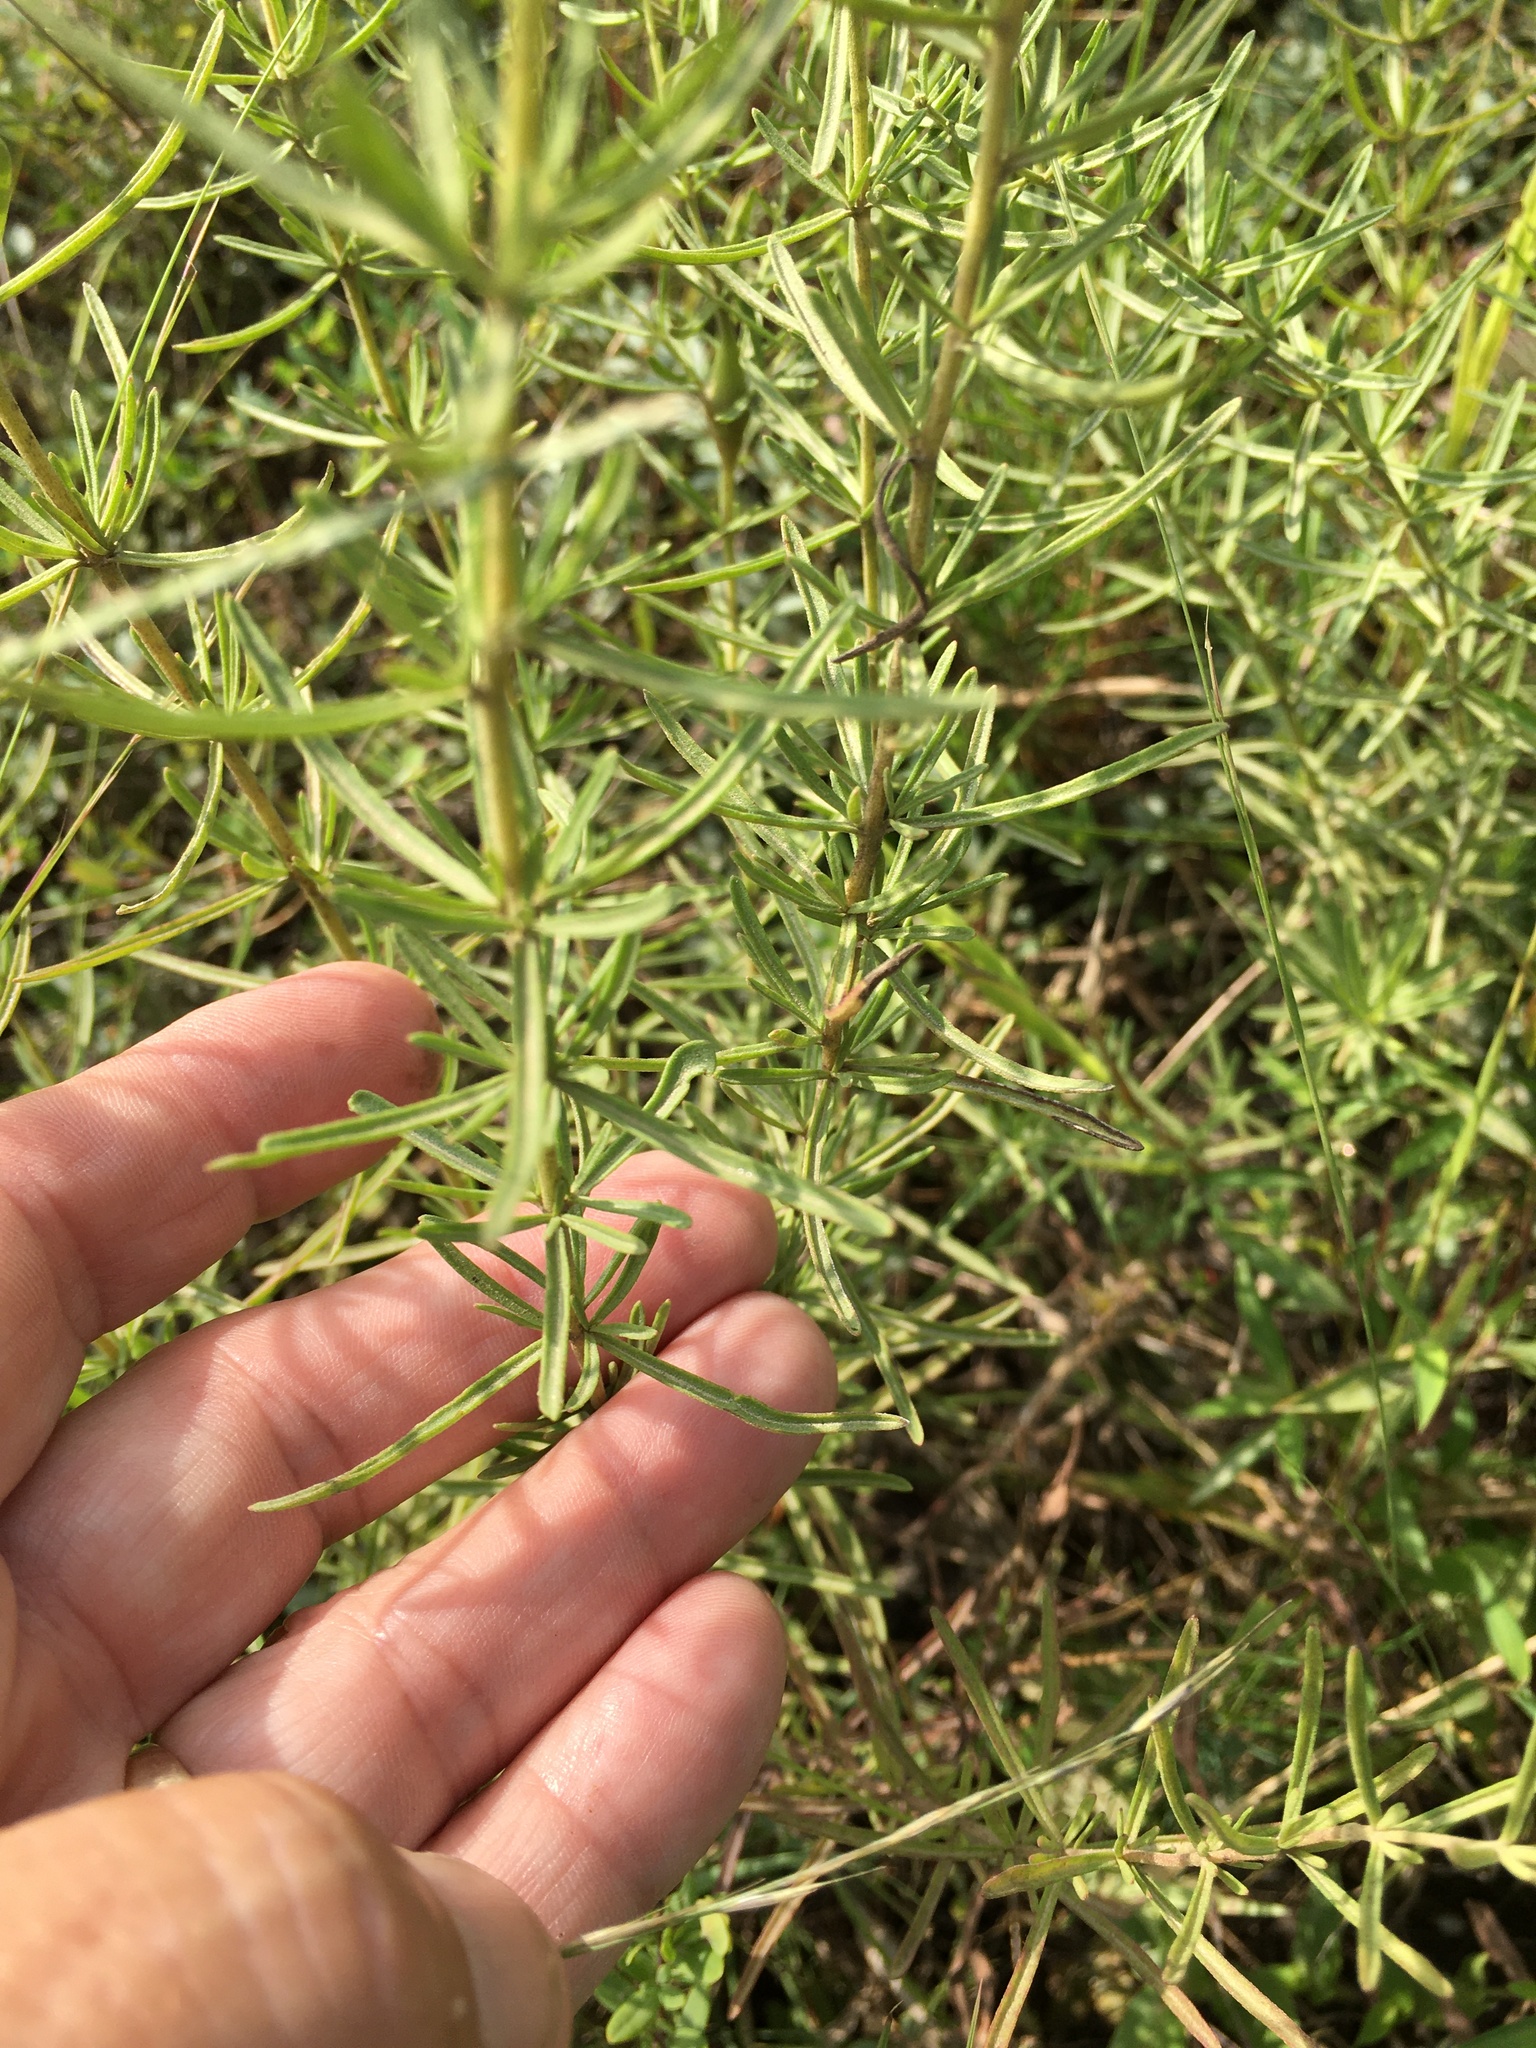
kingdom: Plantae
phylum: Tracheophyta
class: Magnoliopsida
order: Asterales
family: Asteraceae
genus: Eupatorium
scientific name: Eupatorium hyssopifolium
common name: Hyssop-leaf thoroughwort
